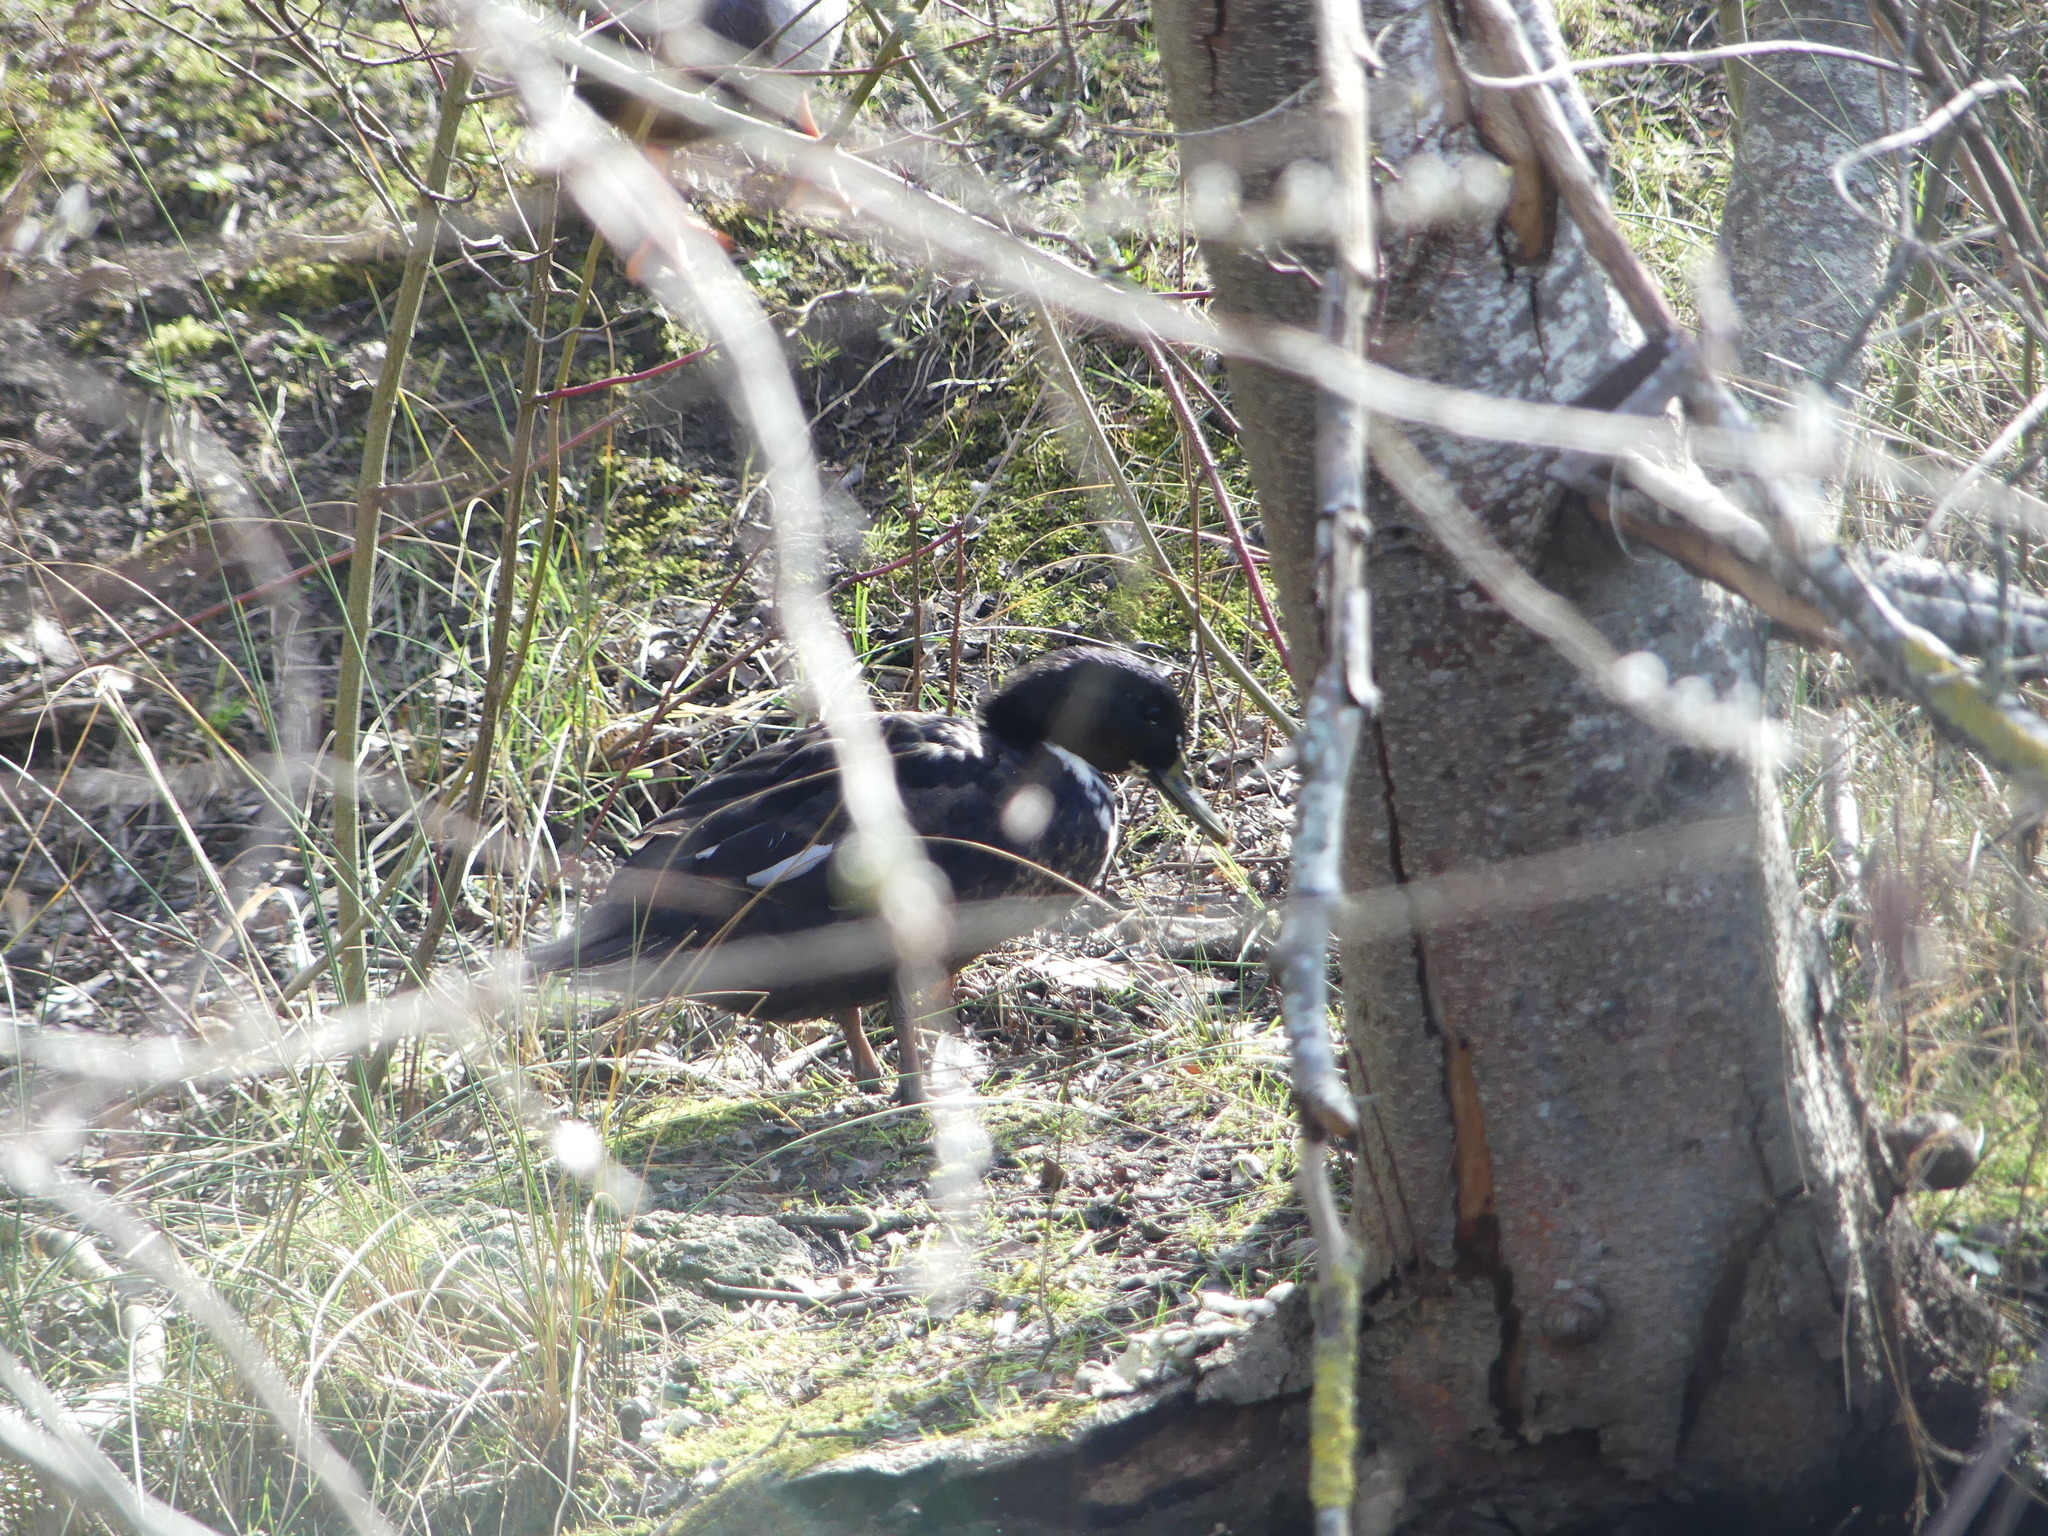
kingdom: Animalia
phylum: Chordata
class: Aves
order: Anseriformes
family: Anatidae
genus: Anas
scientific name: Anas platyrhynchos
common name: Mallard
